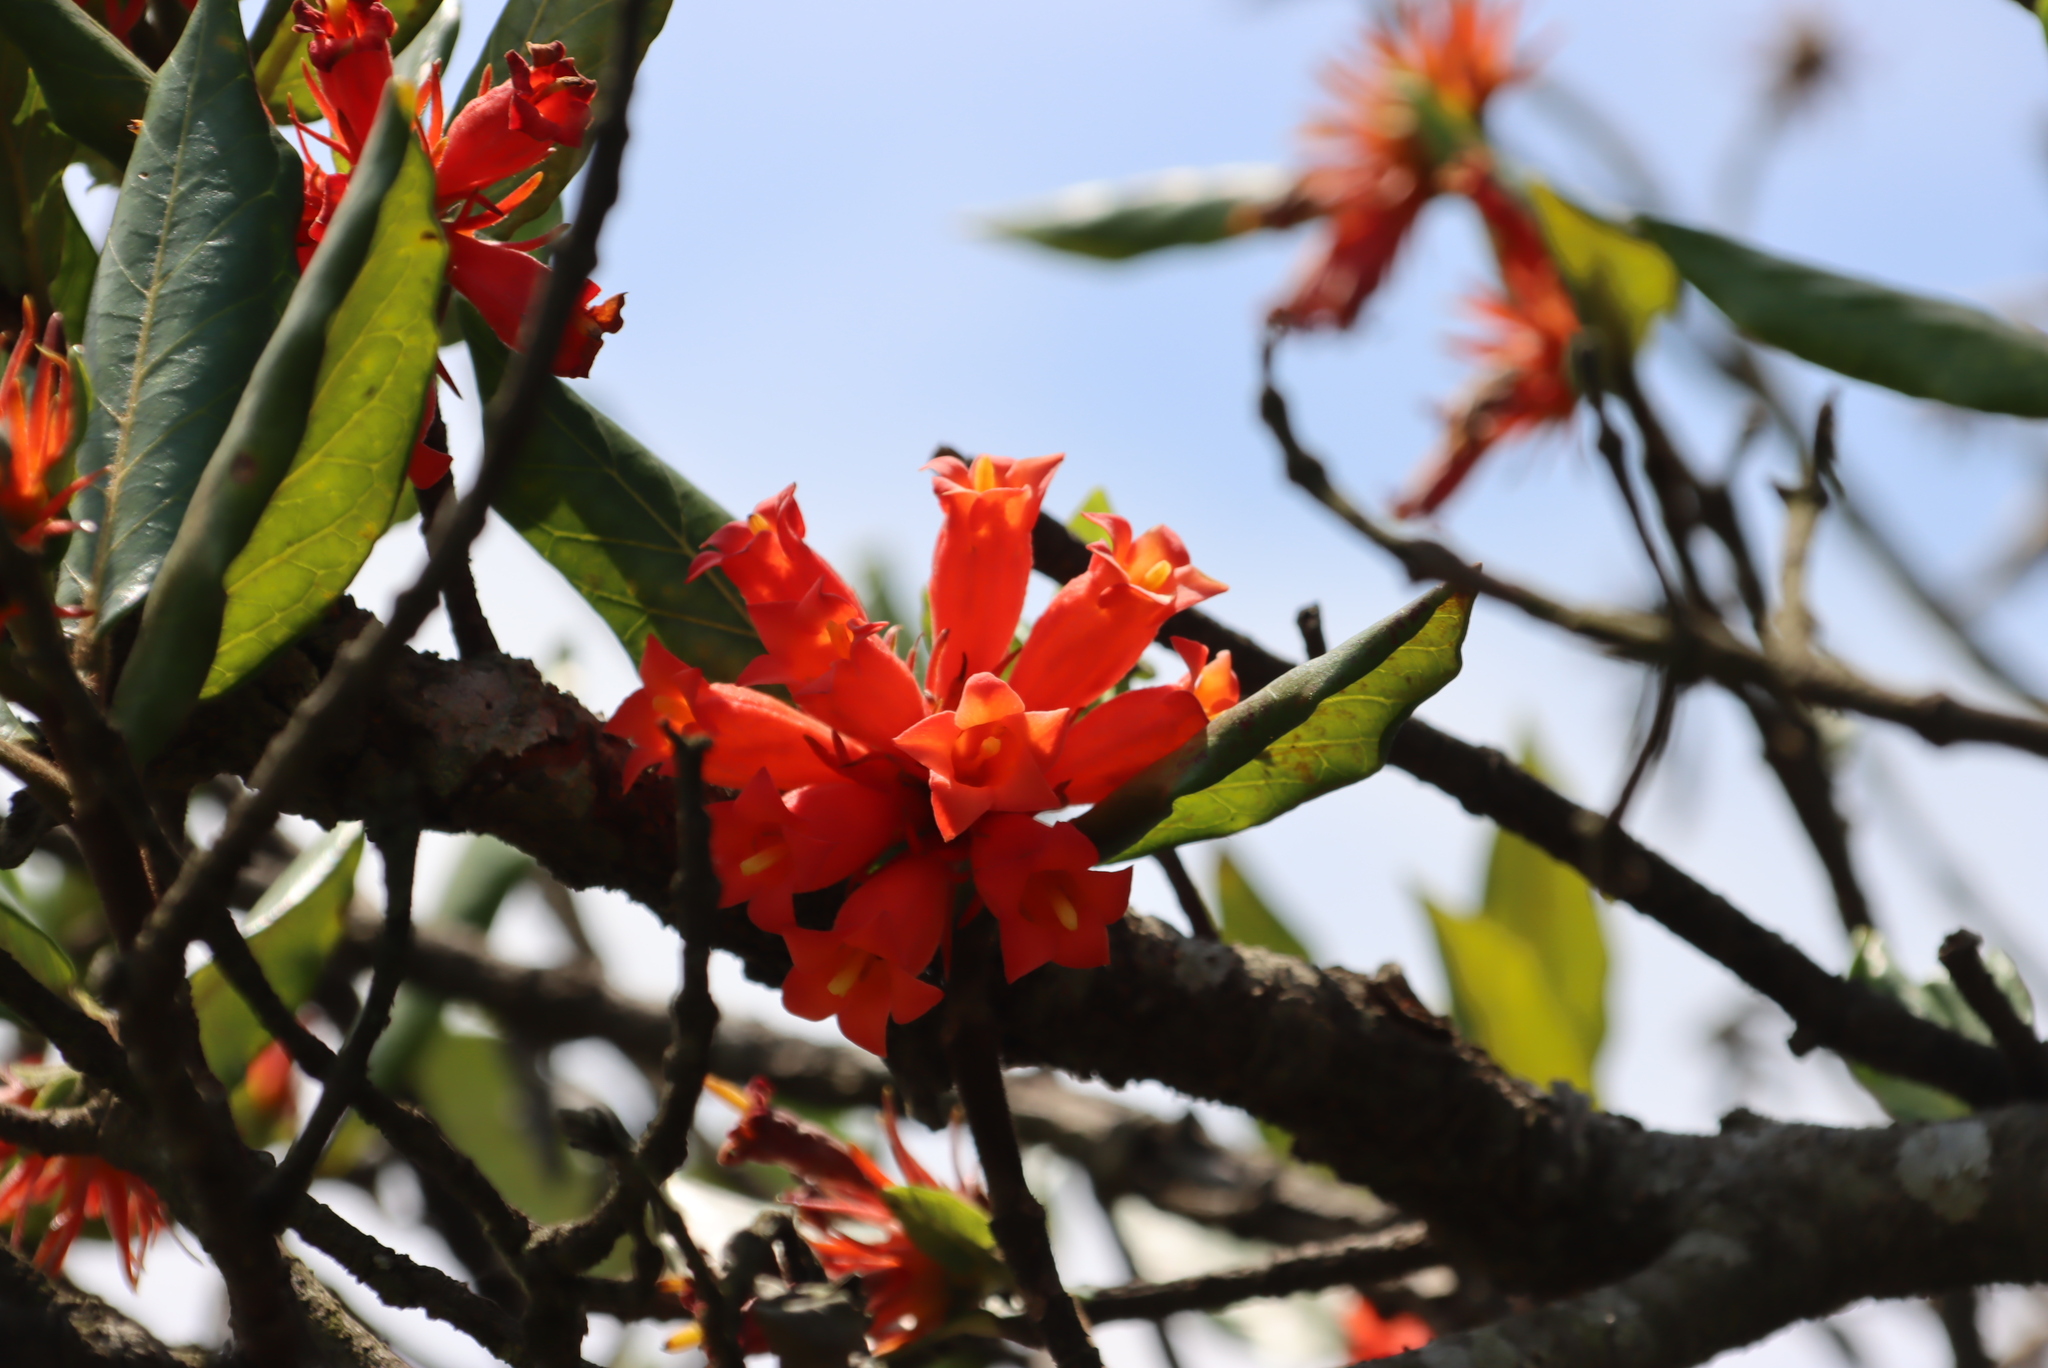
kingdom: Plantae
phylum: Tracheophyta
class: Magnoliopsida
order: Gentianales
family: Rubiaceae
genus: Burchellia
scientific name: Burchellia bubalina
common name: Wild pomegranate
